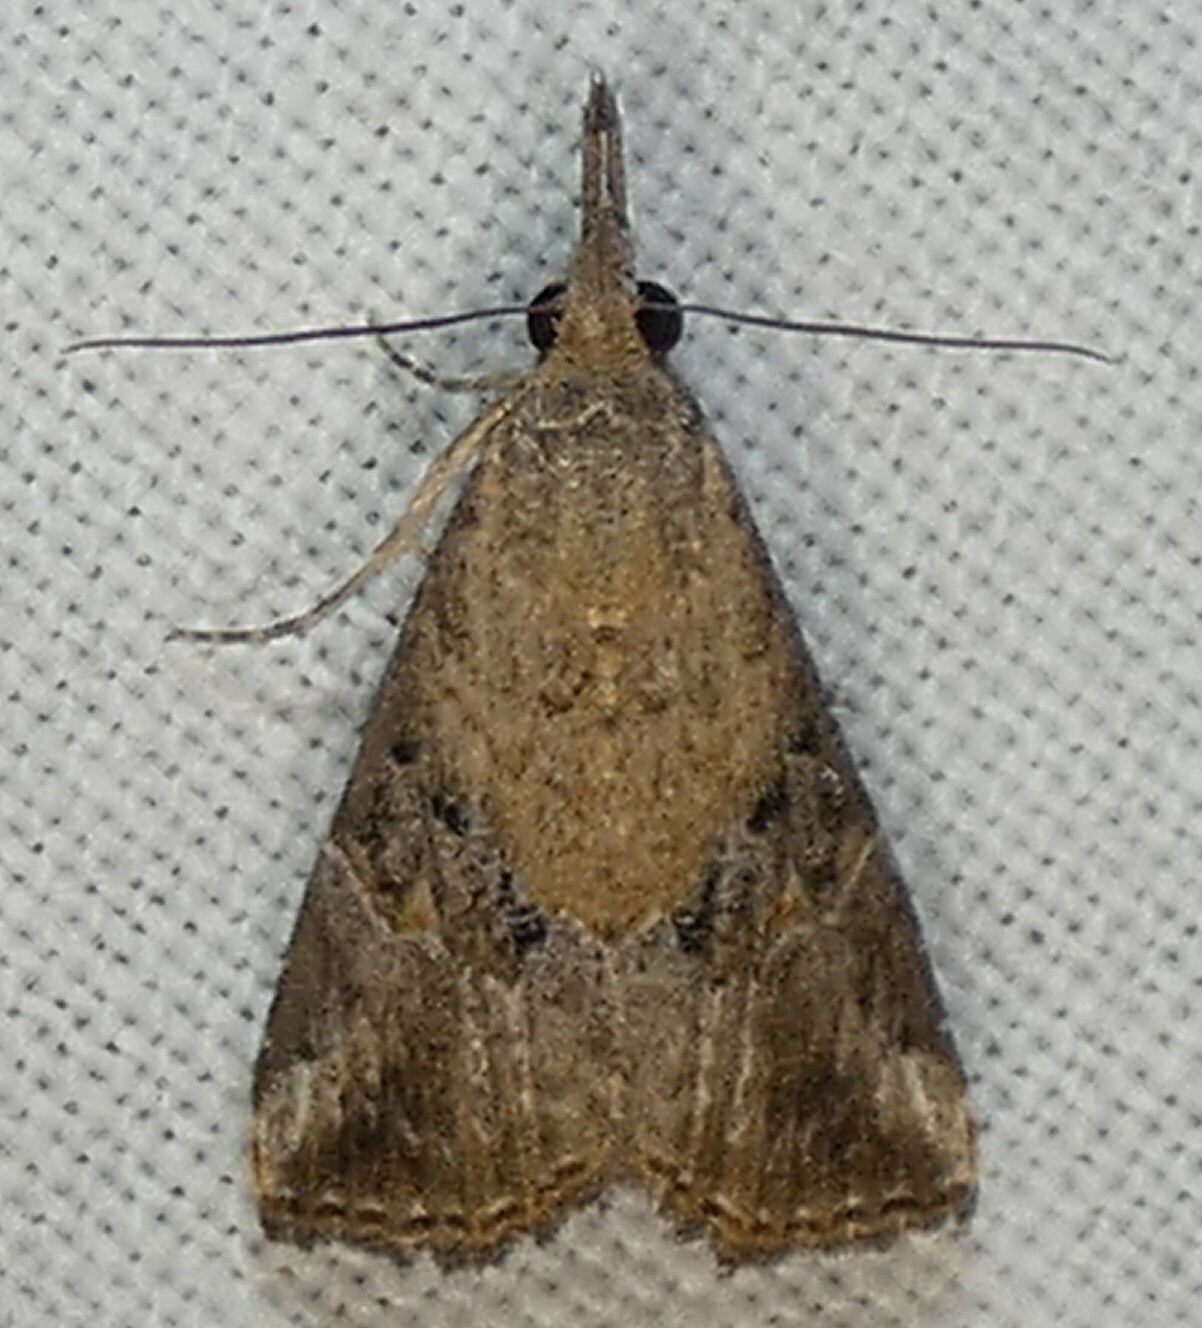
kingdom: Animalia
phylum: Arthropoda
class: Insecta
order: Lepidoptera
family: Erebidae
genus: Hypena
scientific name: Hypena minualis
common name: Sooty snout
